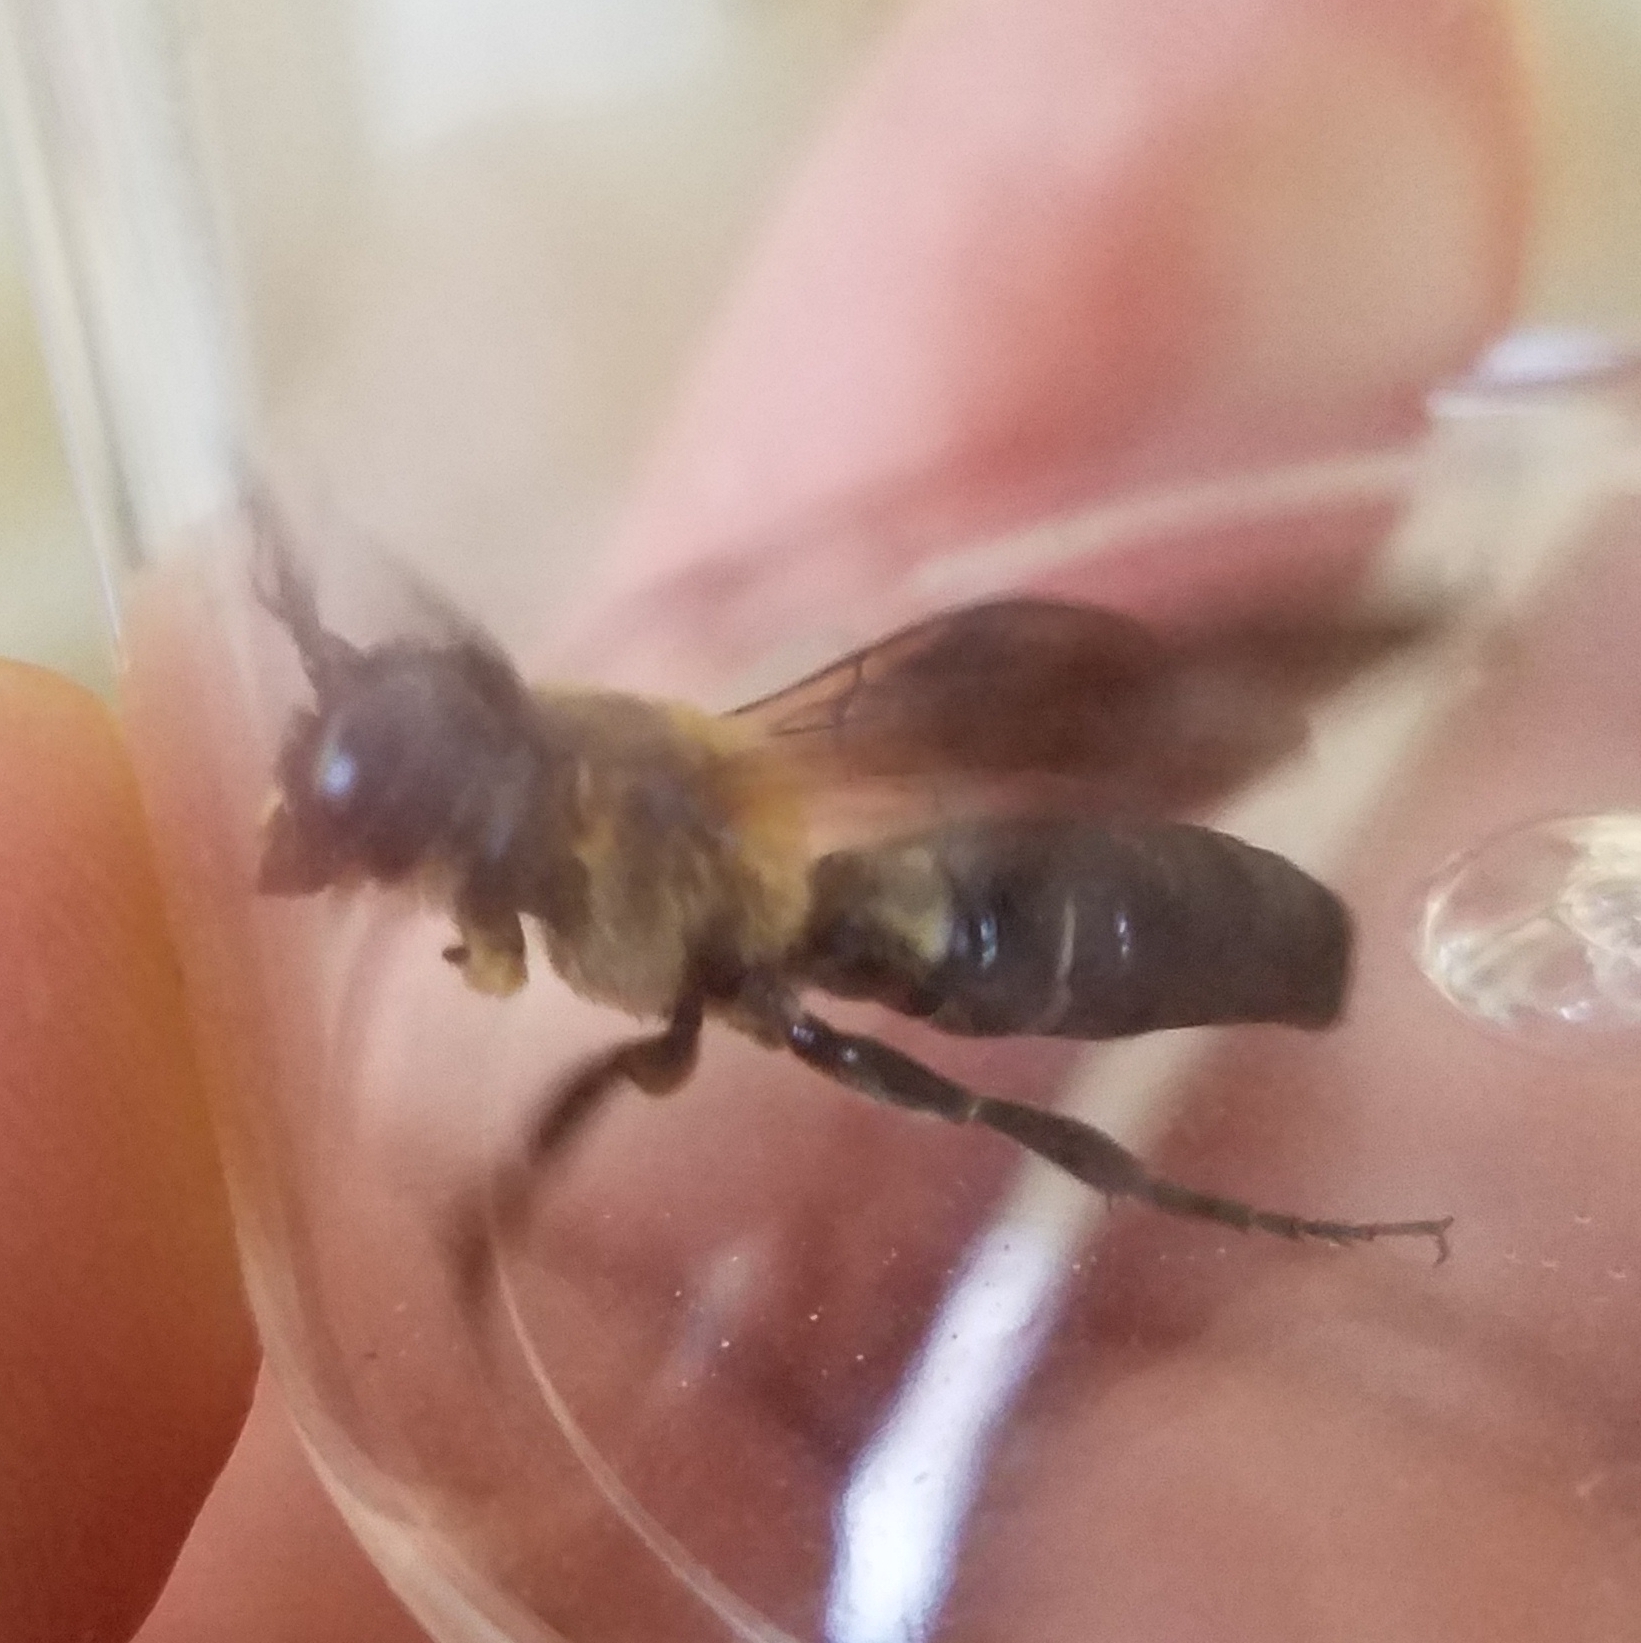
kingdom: Animalia
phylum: Arthropoda
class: Insecta
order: Hymenoptera
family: Megachilidae
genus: Megachile
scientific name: Megachile sculpturalis
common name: Sculptured resin bee
